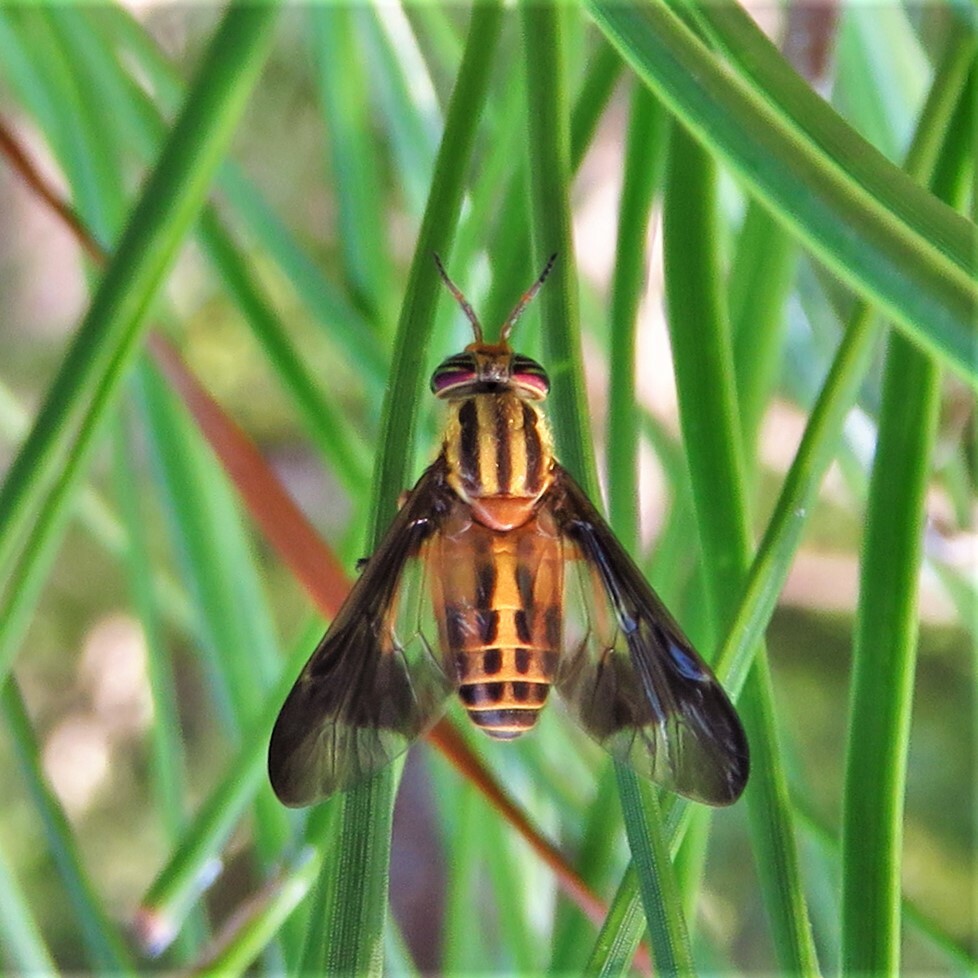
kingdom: Animalia
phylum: Arthropoda
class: Insecta
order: Diptera
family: Tabanidae
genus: Chrysops
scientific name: Chrysops vittatus
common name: Striped deer fly
